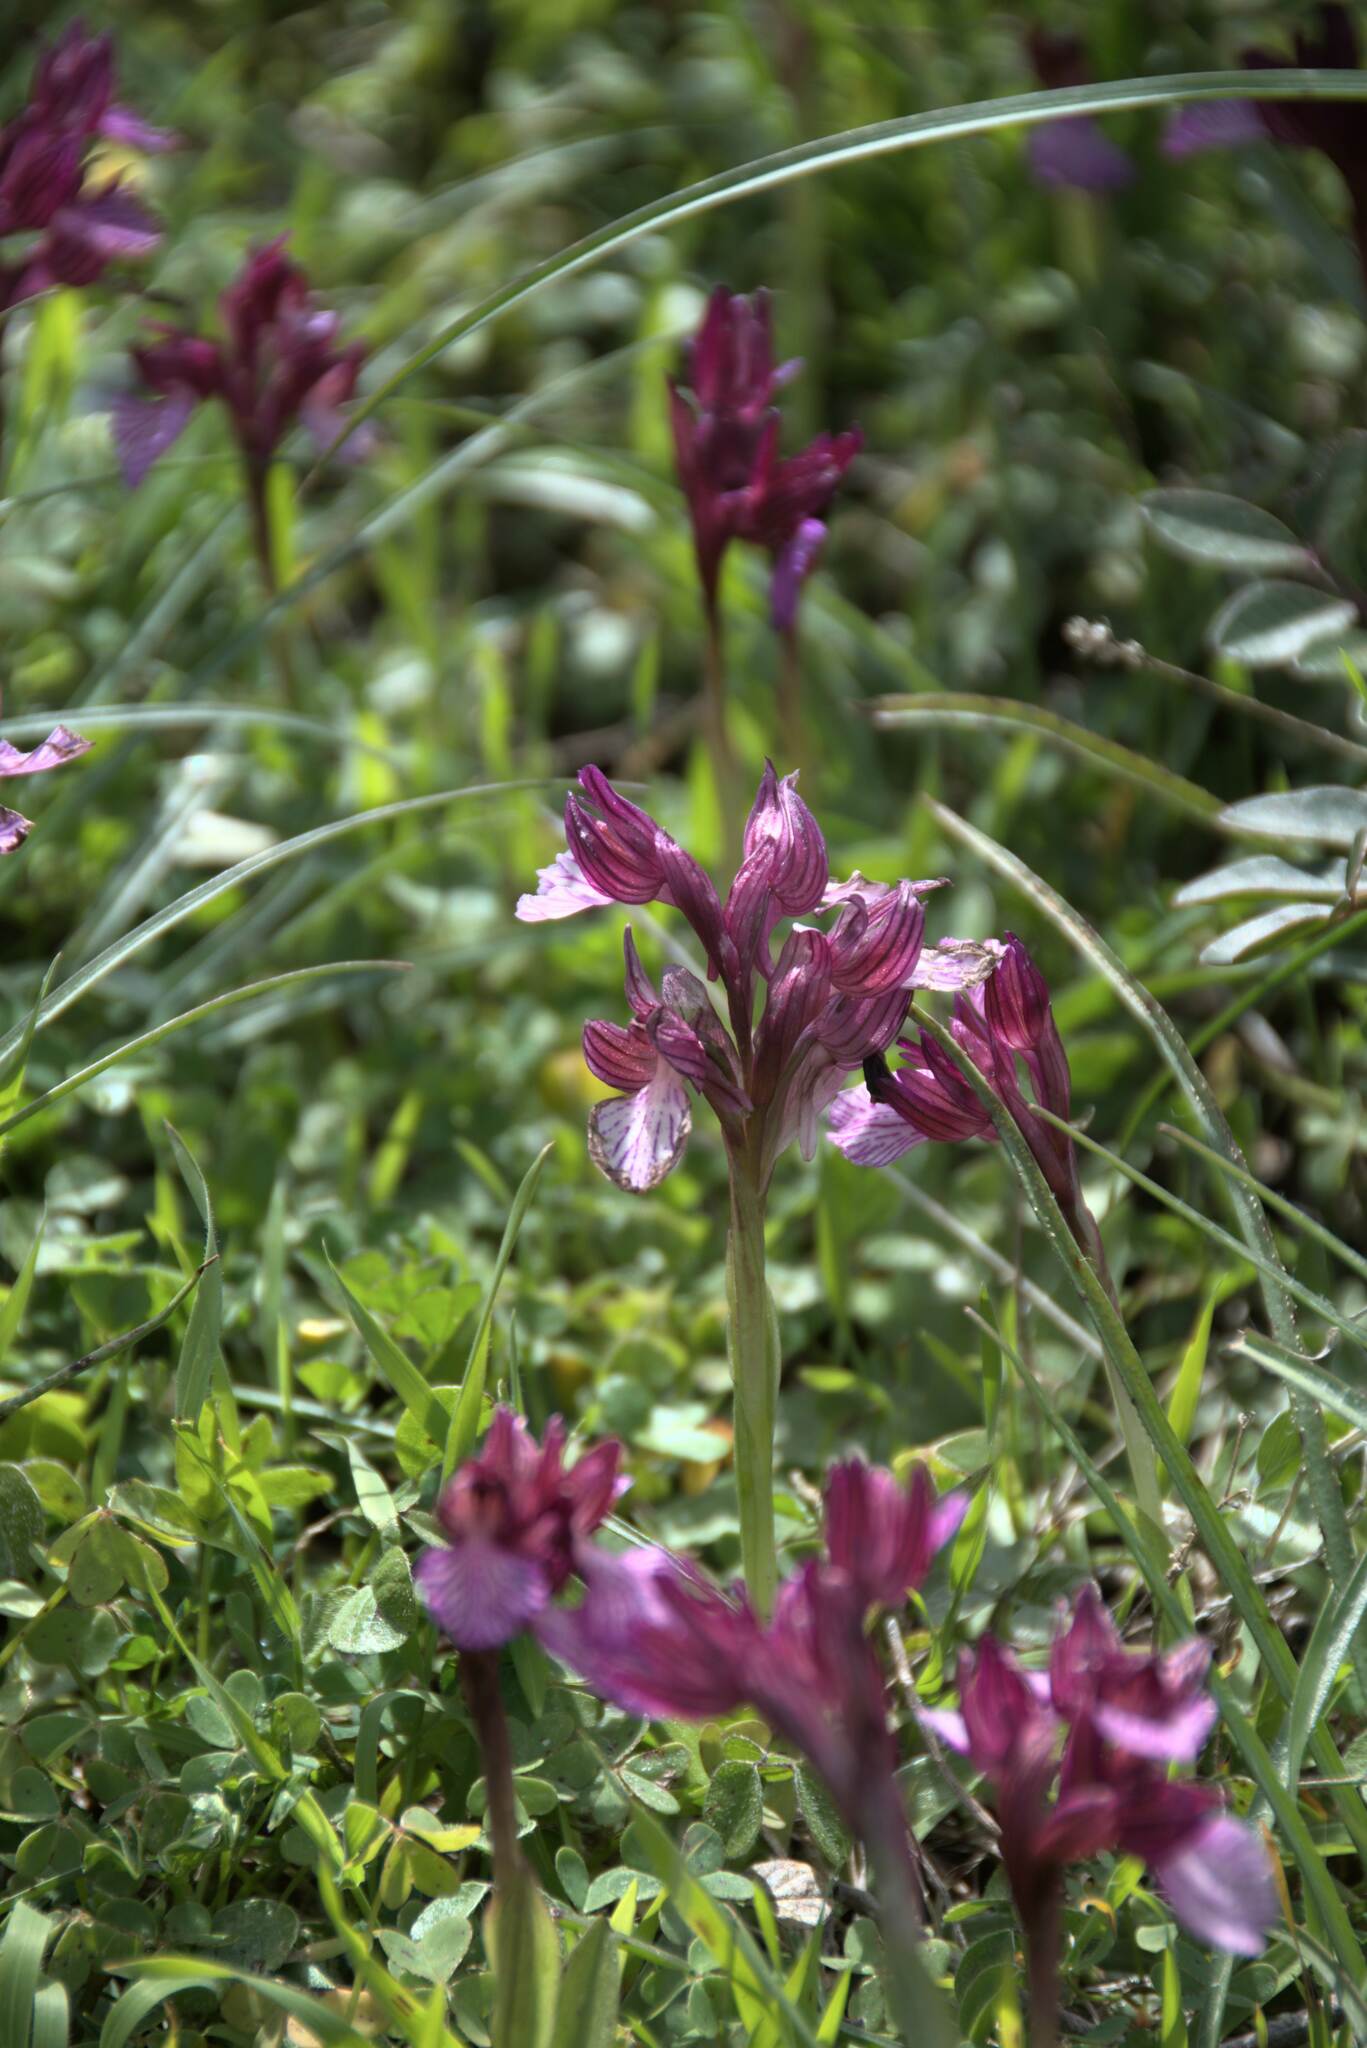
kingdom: Plantae
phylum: Tracheophyta
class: Liliopsida
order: Asparagales
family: Orchidaceae
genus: Anacamptis
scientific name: Anacamptis papilionacea
